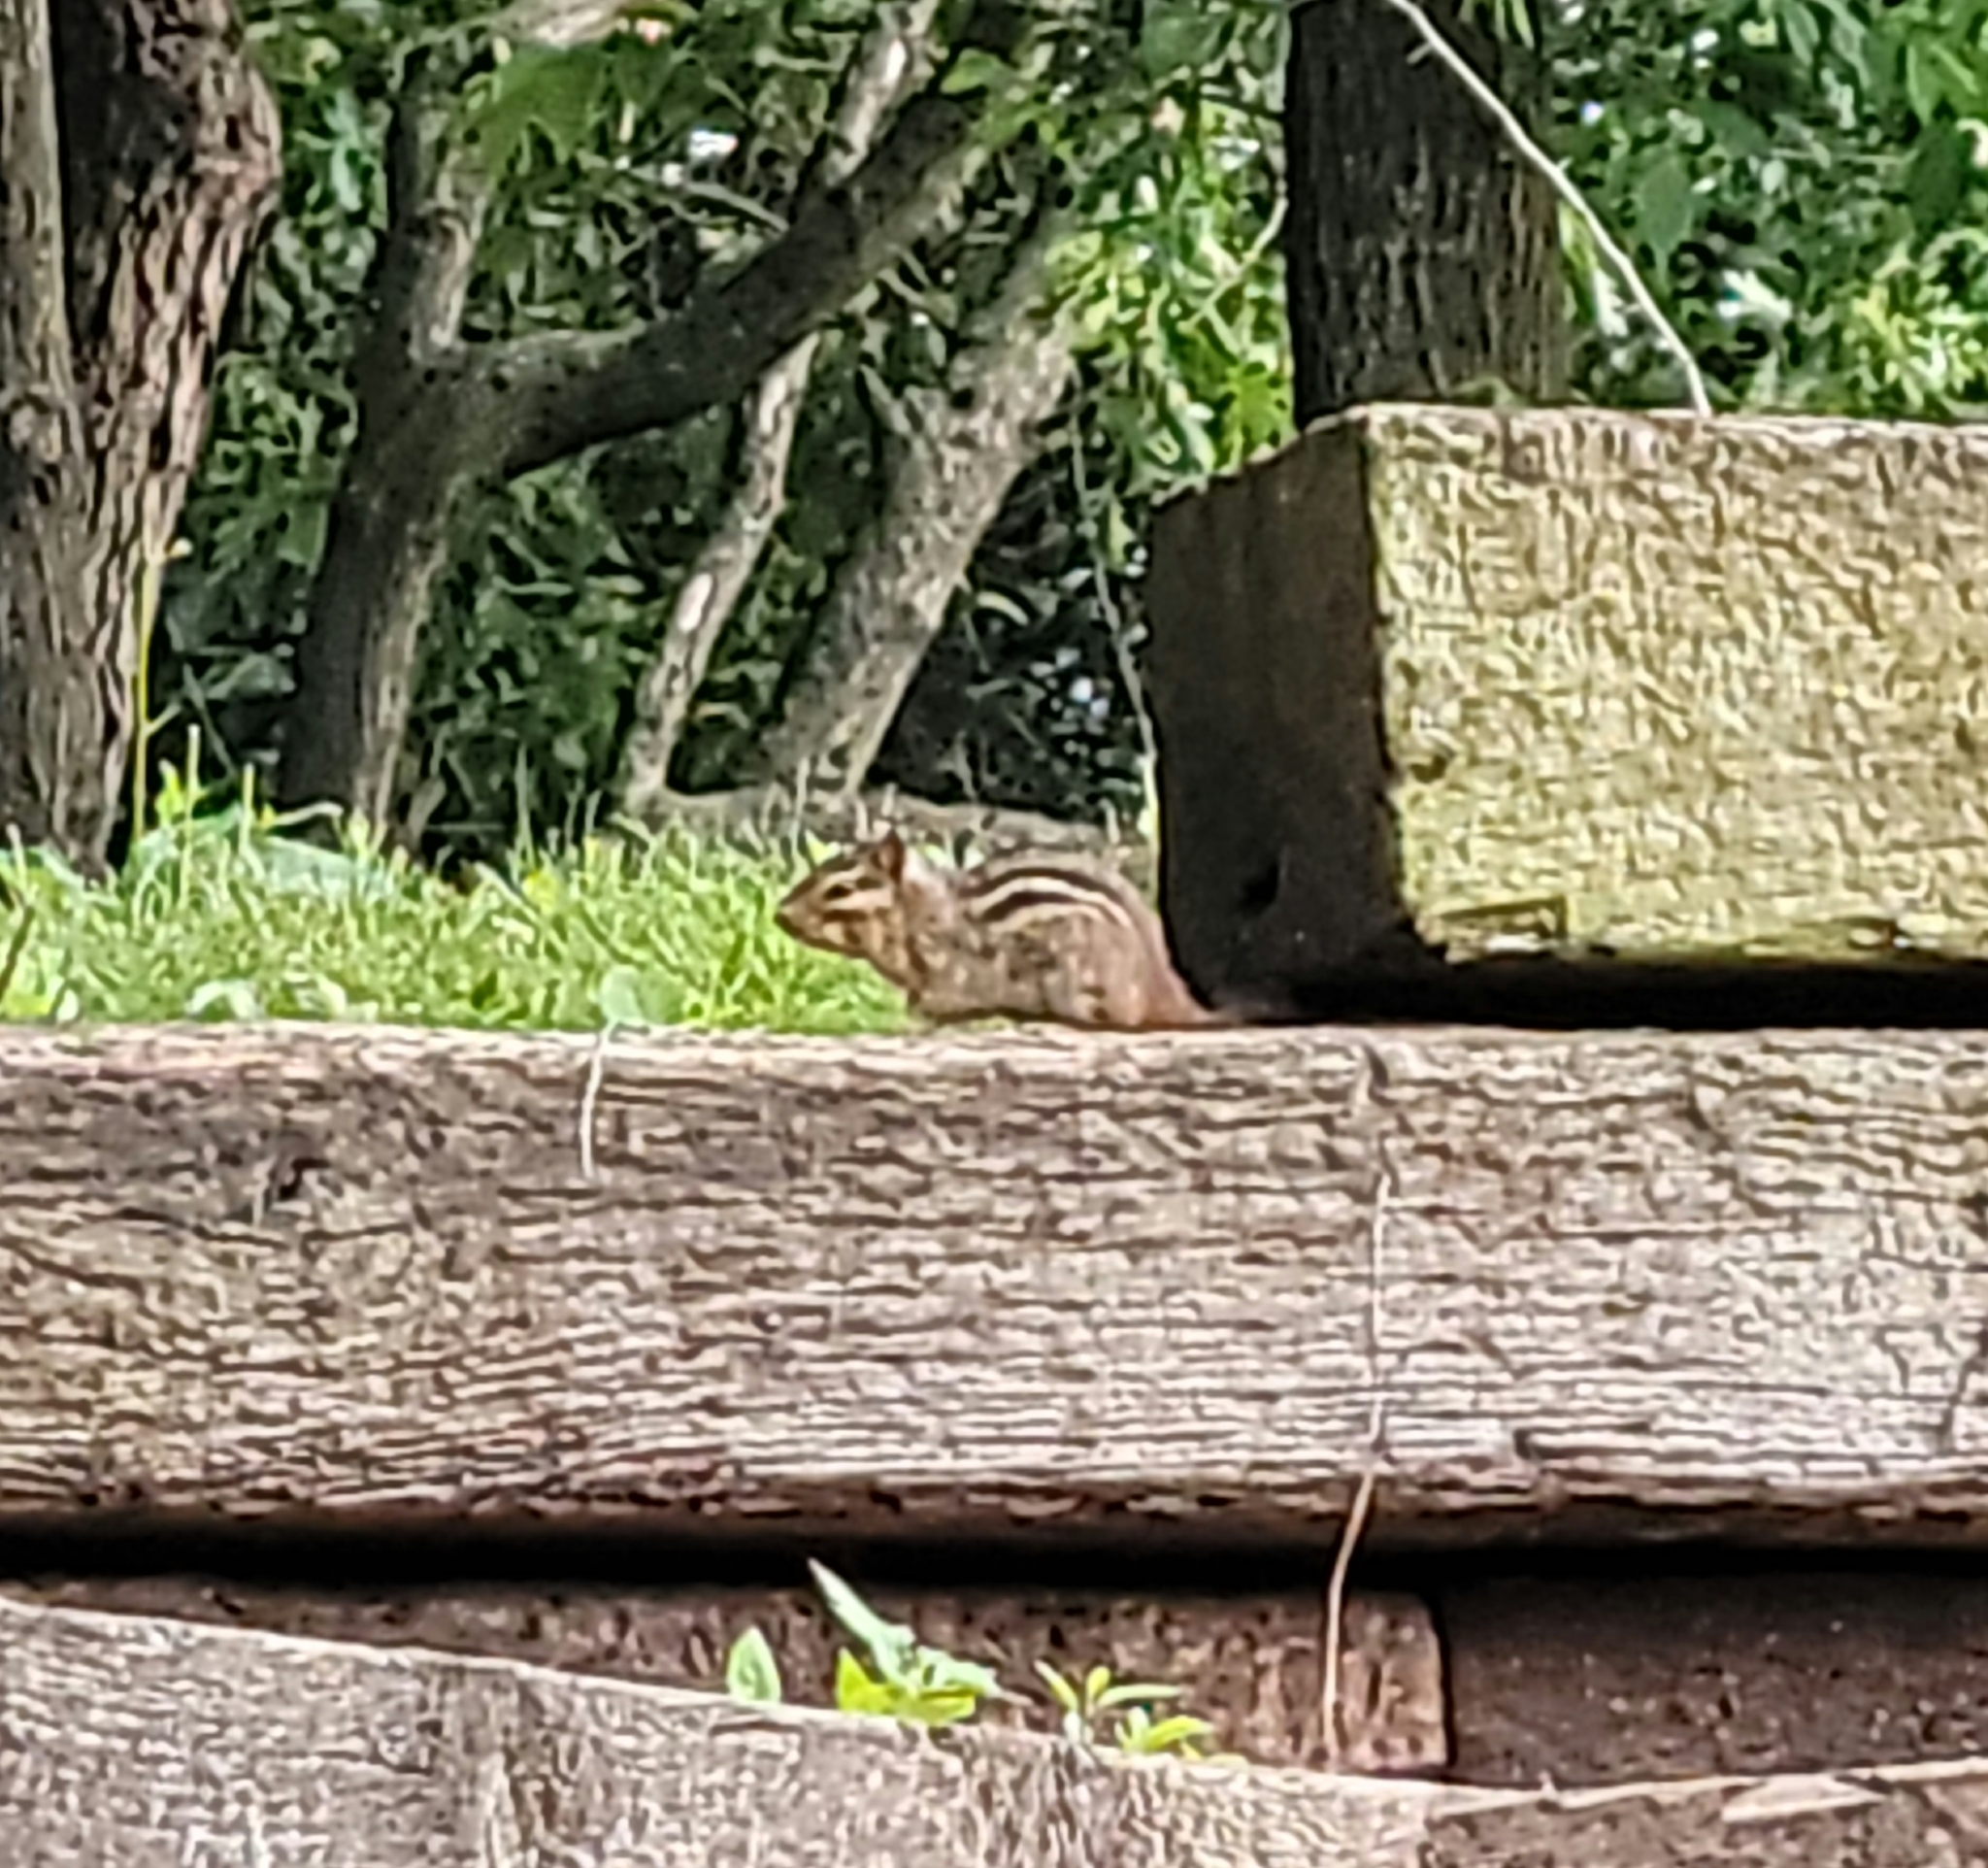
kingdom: Animalia
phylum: Chordata
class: Mammalia
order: Rodentia
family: Sciuridae
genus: Tamias
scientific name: Tamias striatus
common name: Eastern chipmunk
